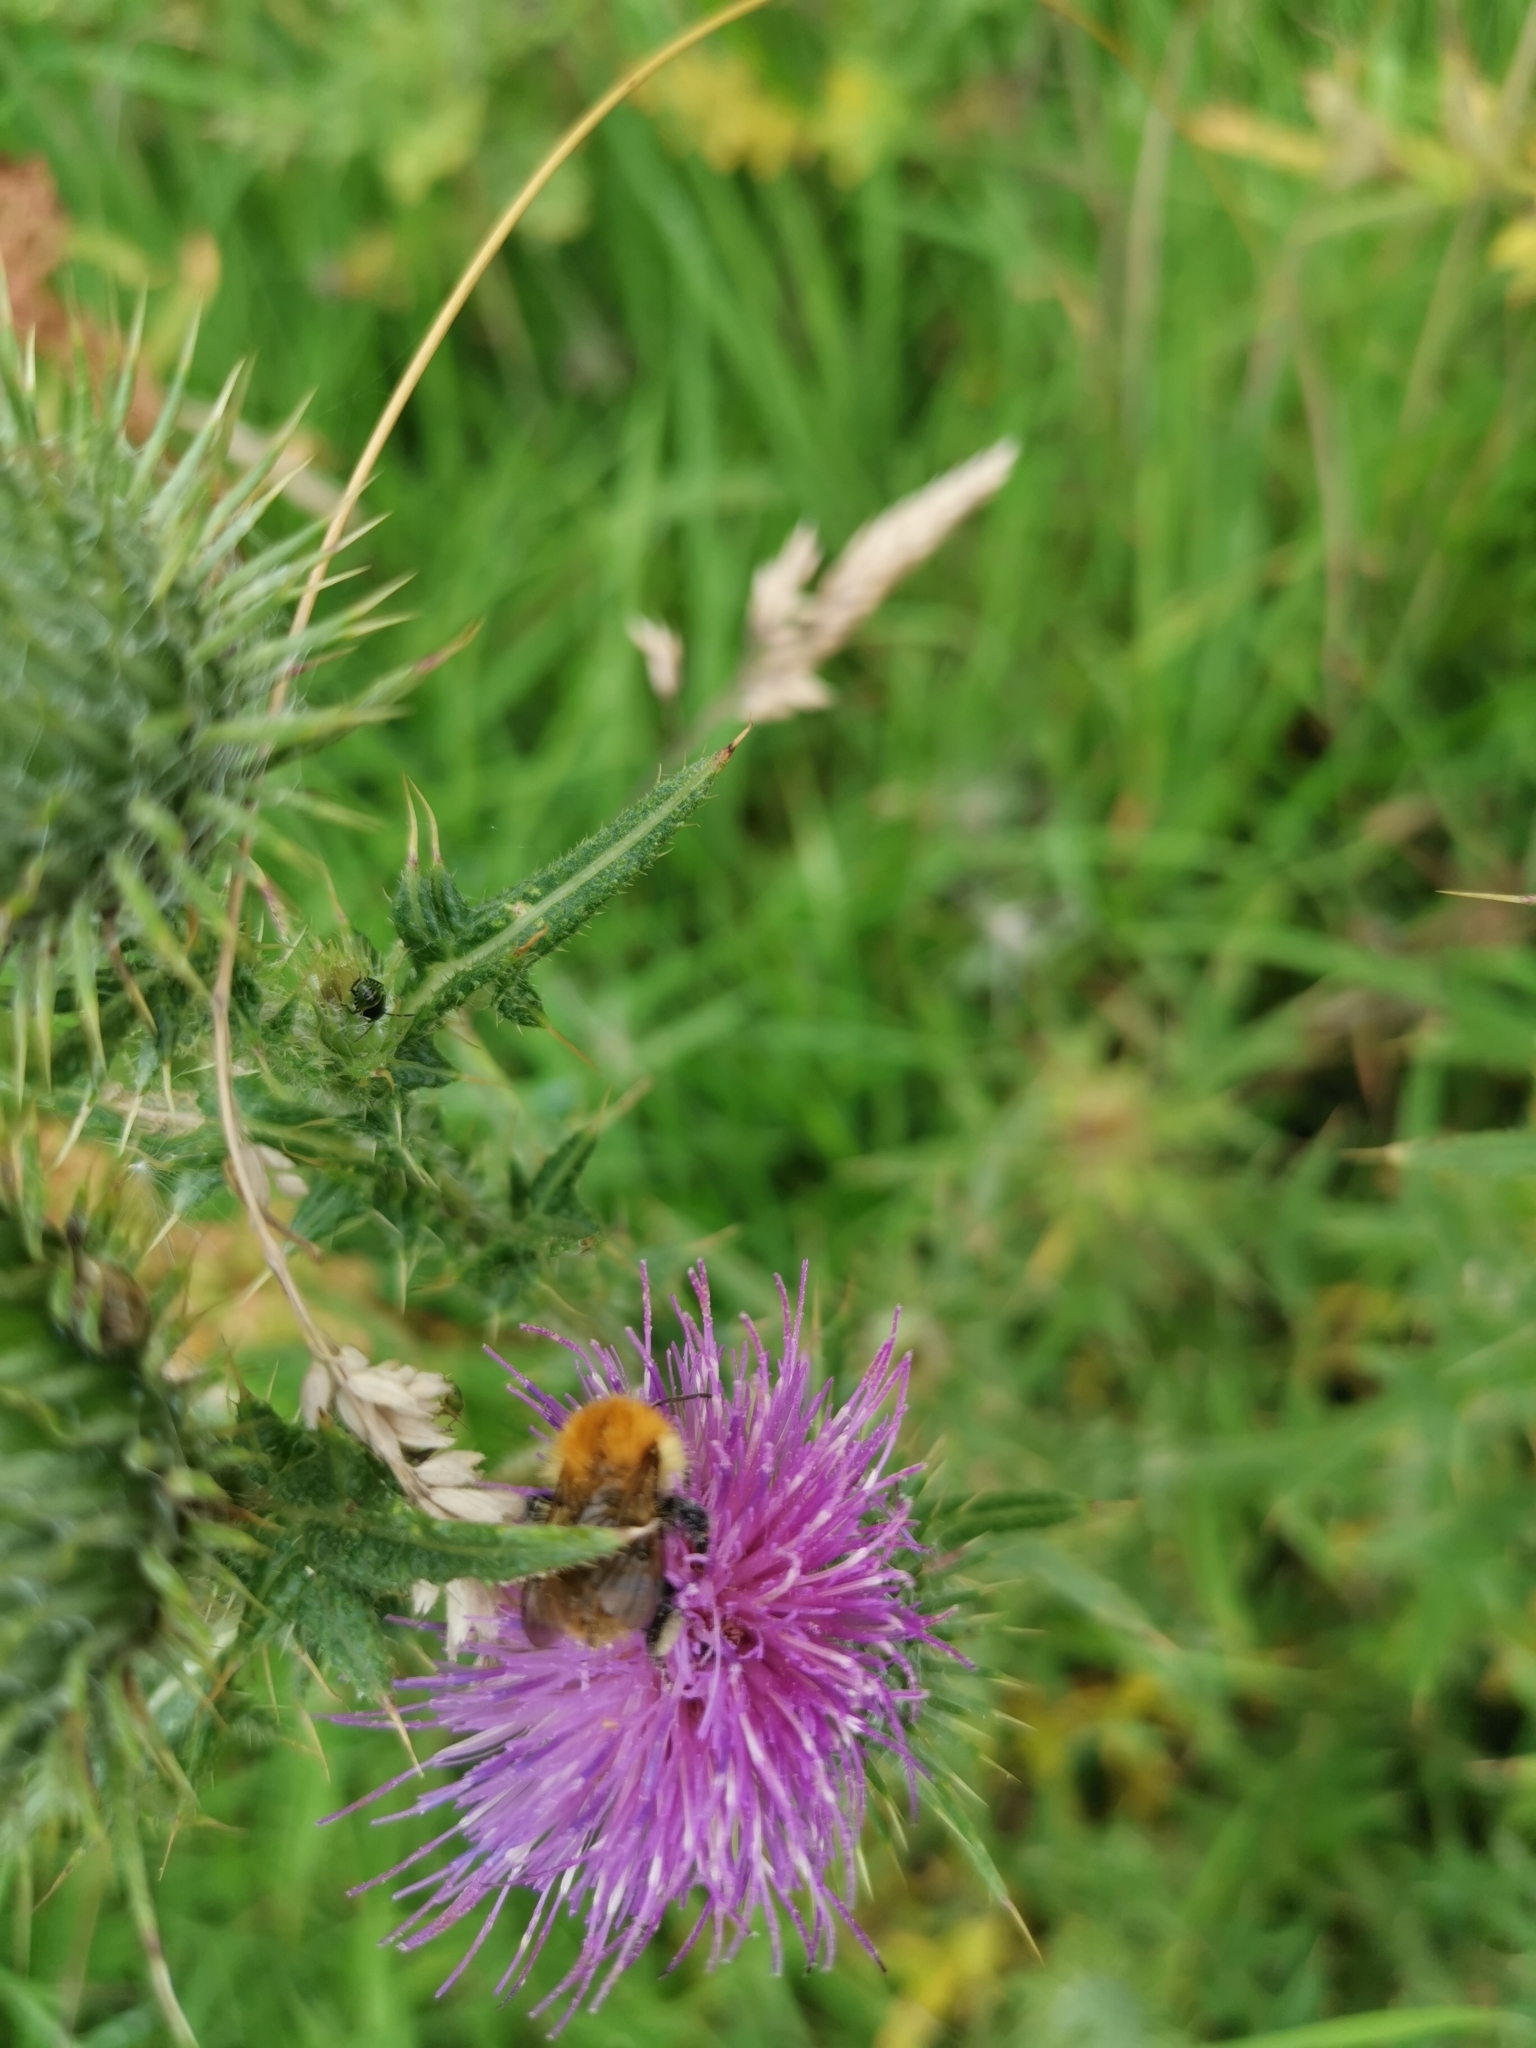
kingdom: Animalia
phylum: Arthropoda
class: Insecta
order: Hymenoptera
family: Apidae
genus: Bombus
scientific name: Bombus pascuorum
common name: Common carder bee
